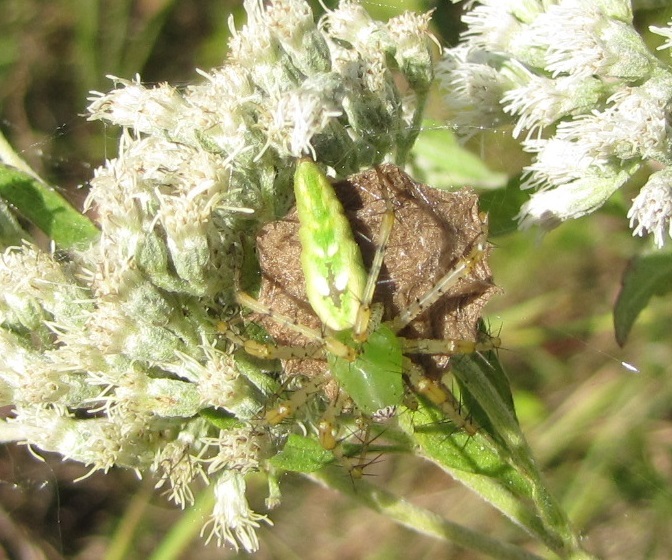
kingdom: Animalia
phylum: Arthropoda
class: Arachnida
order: Araneae
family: Oxyopidae
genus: Peucetia
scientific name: Peucetia viridans
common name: Lynx spiders
